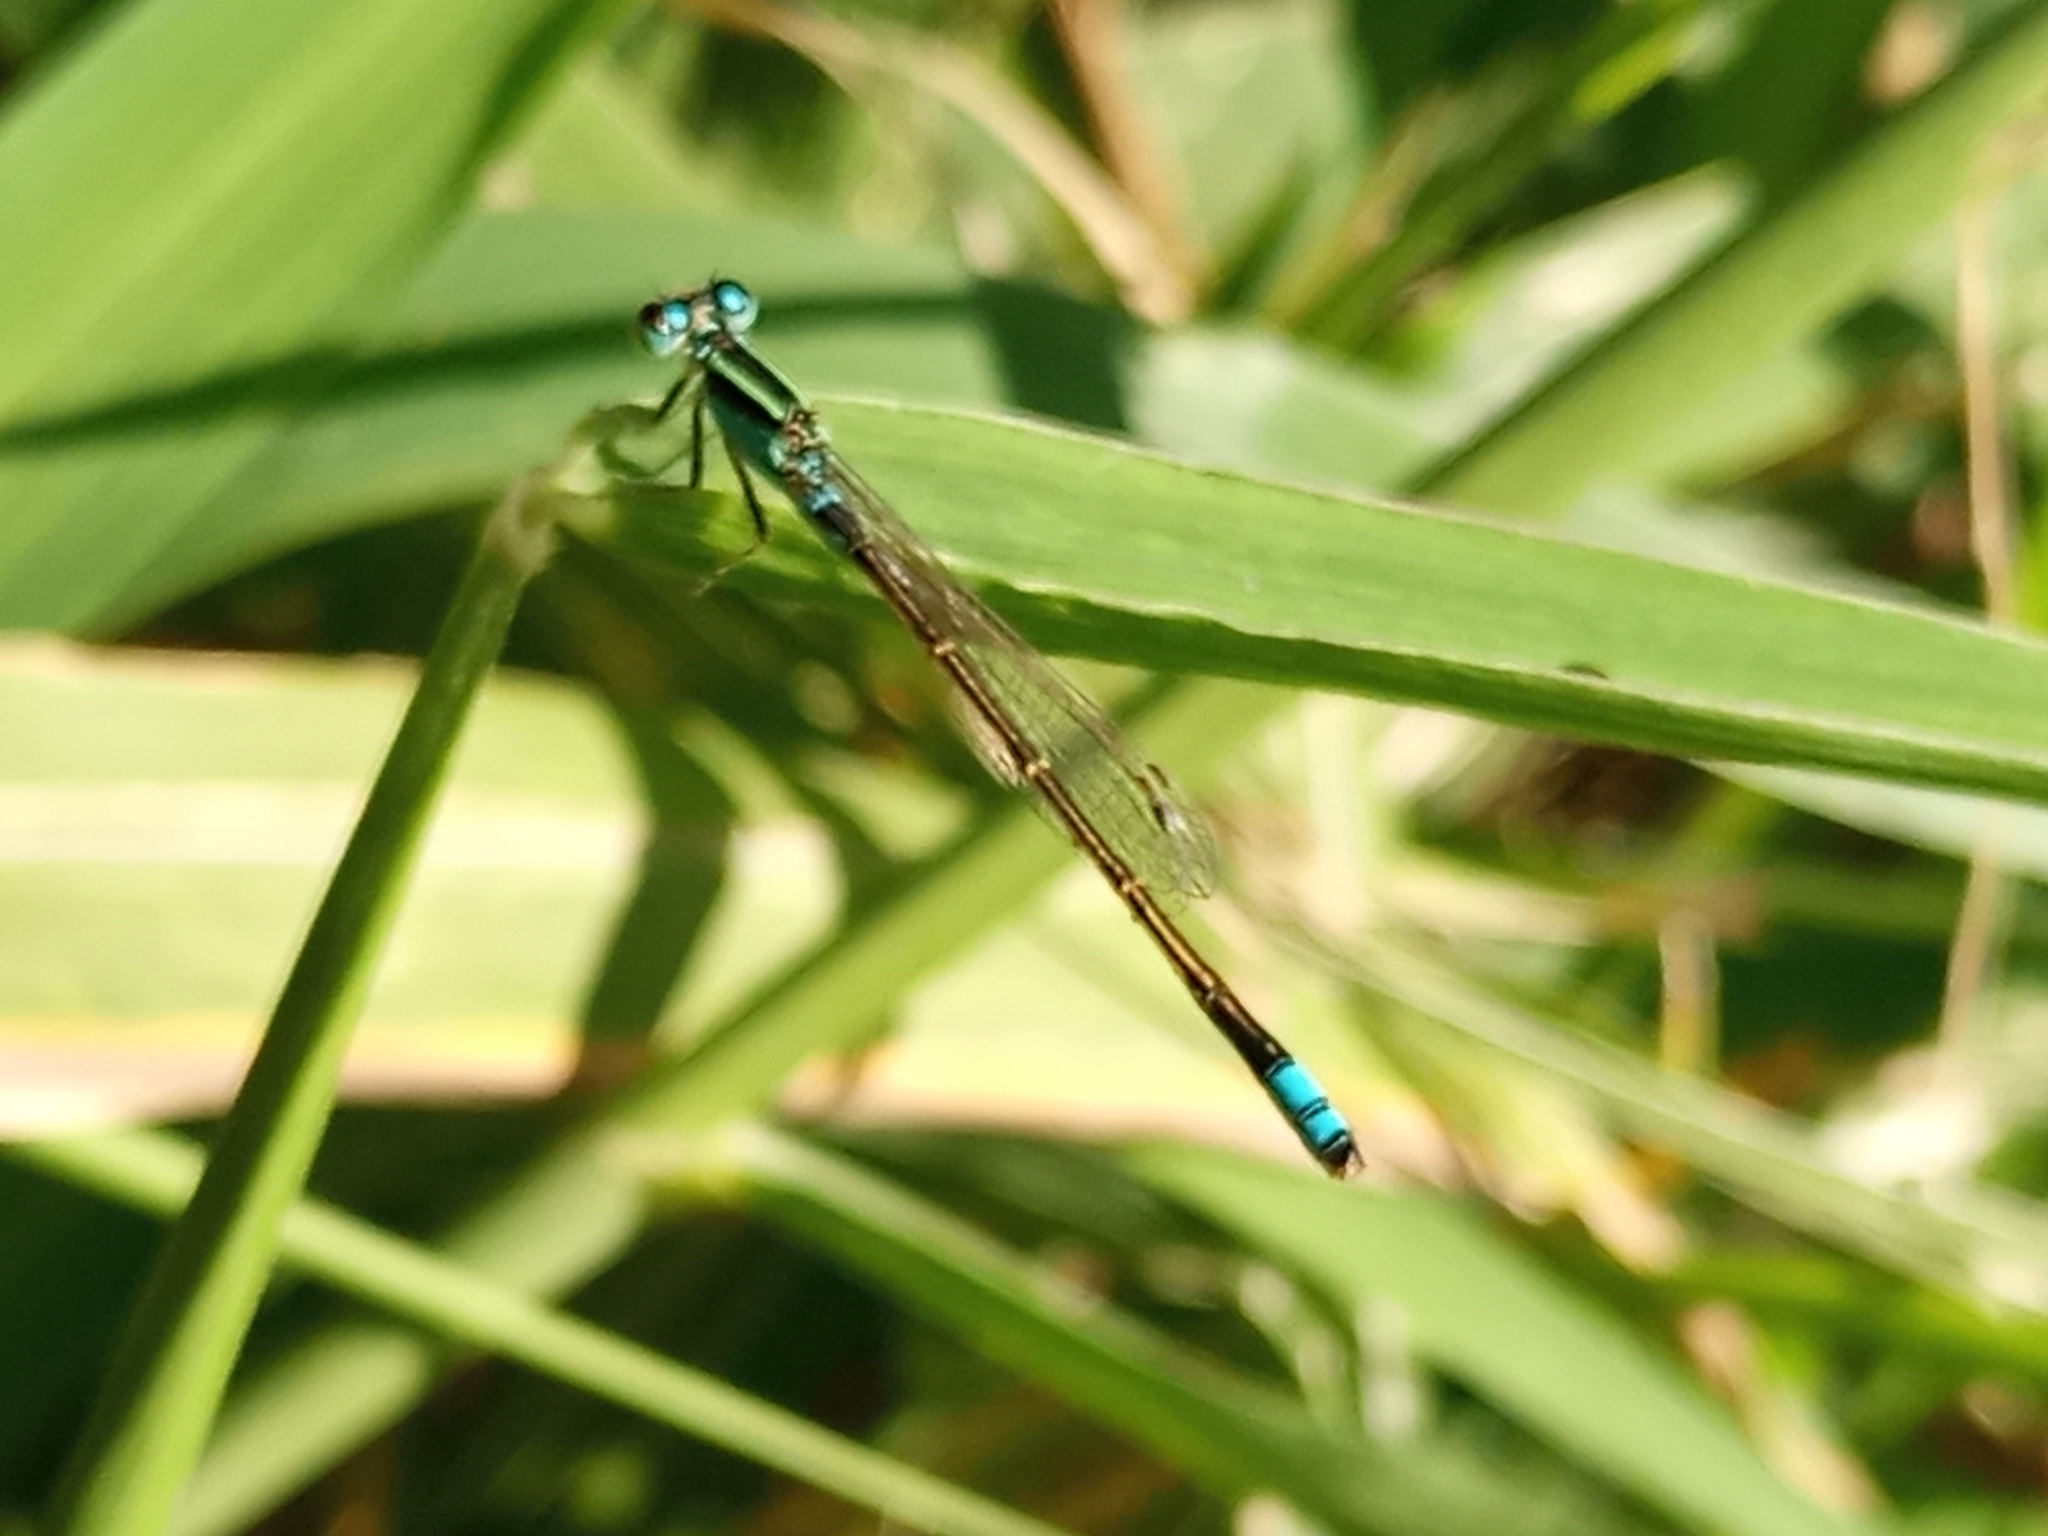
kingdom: Animalia
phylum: Arthropoda
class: Insecta
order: Odonata
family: Coenagrionidae
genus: Ischnura
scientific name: Ischnura fluviatilis
